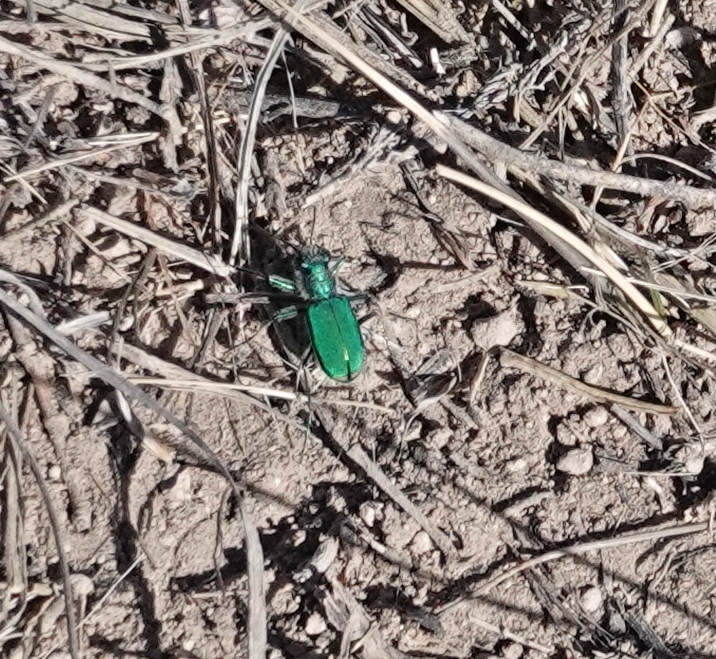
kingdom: Animalia
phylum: Arthropoda
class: Insecta
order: Coleoptera
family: Carabidae
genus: Cicindela
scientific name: Cicindela denverensis
